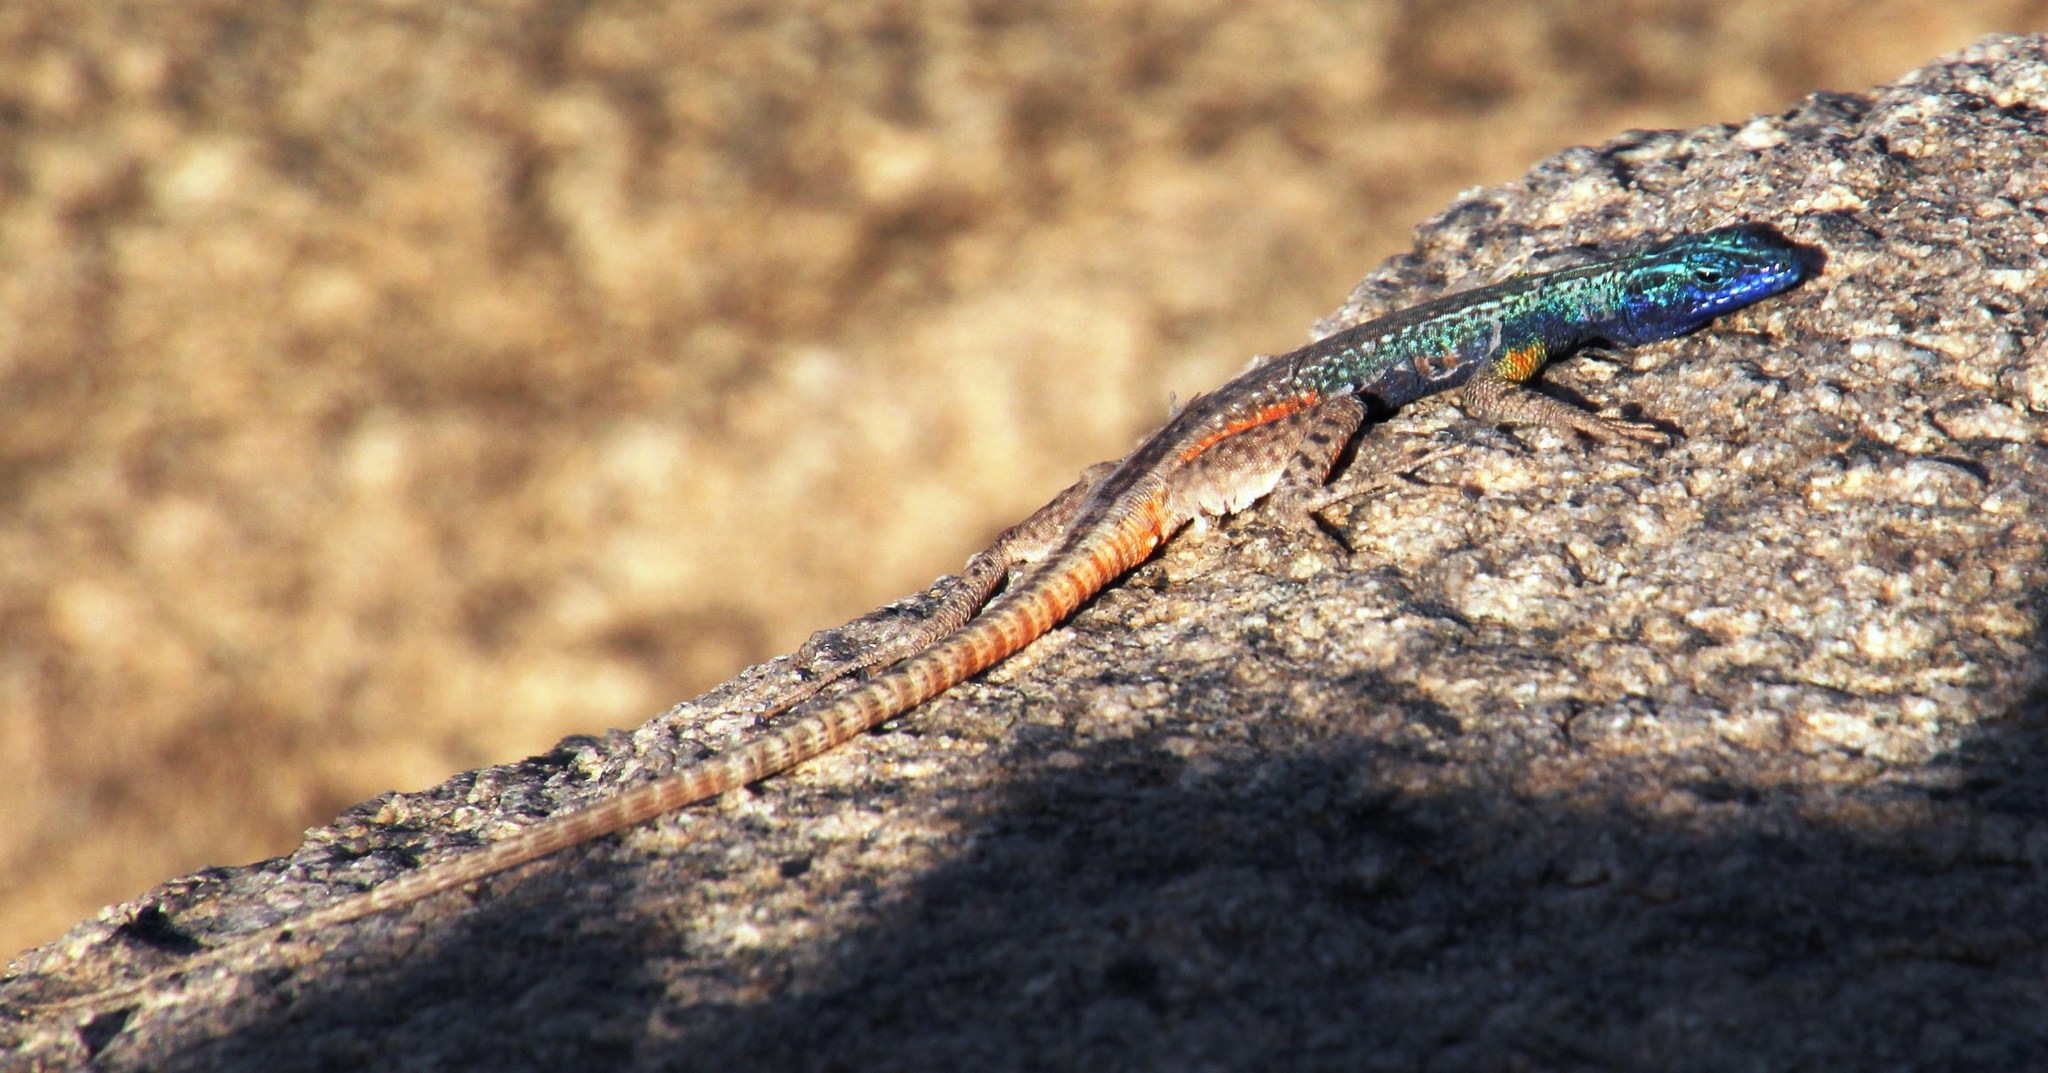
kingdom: Animalia
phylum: Chordata
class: Squamata
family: Cordylidae
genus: Platysaurus
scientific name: Platysaurus broadleyi
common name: Augrabies flat lizard
